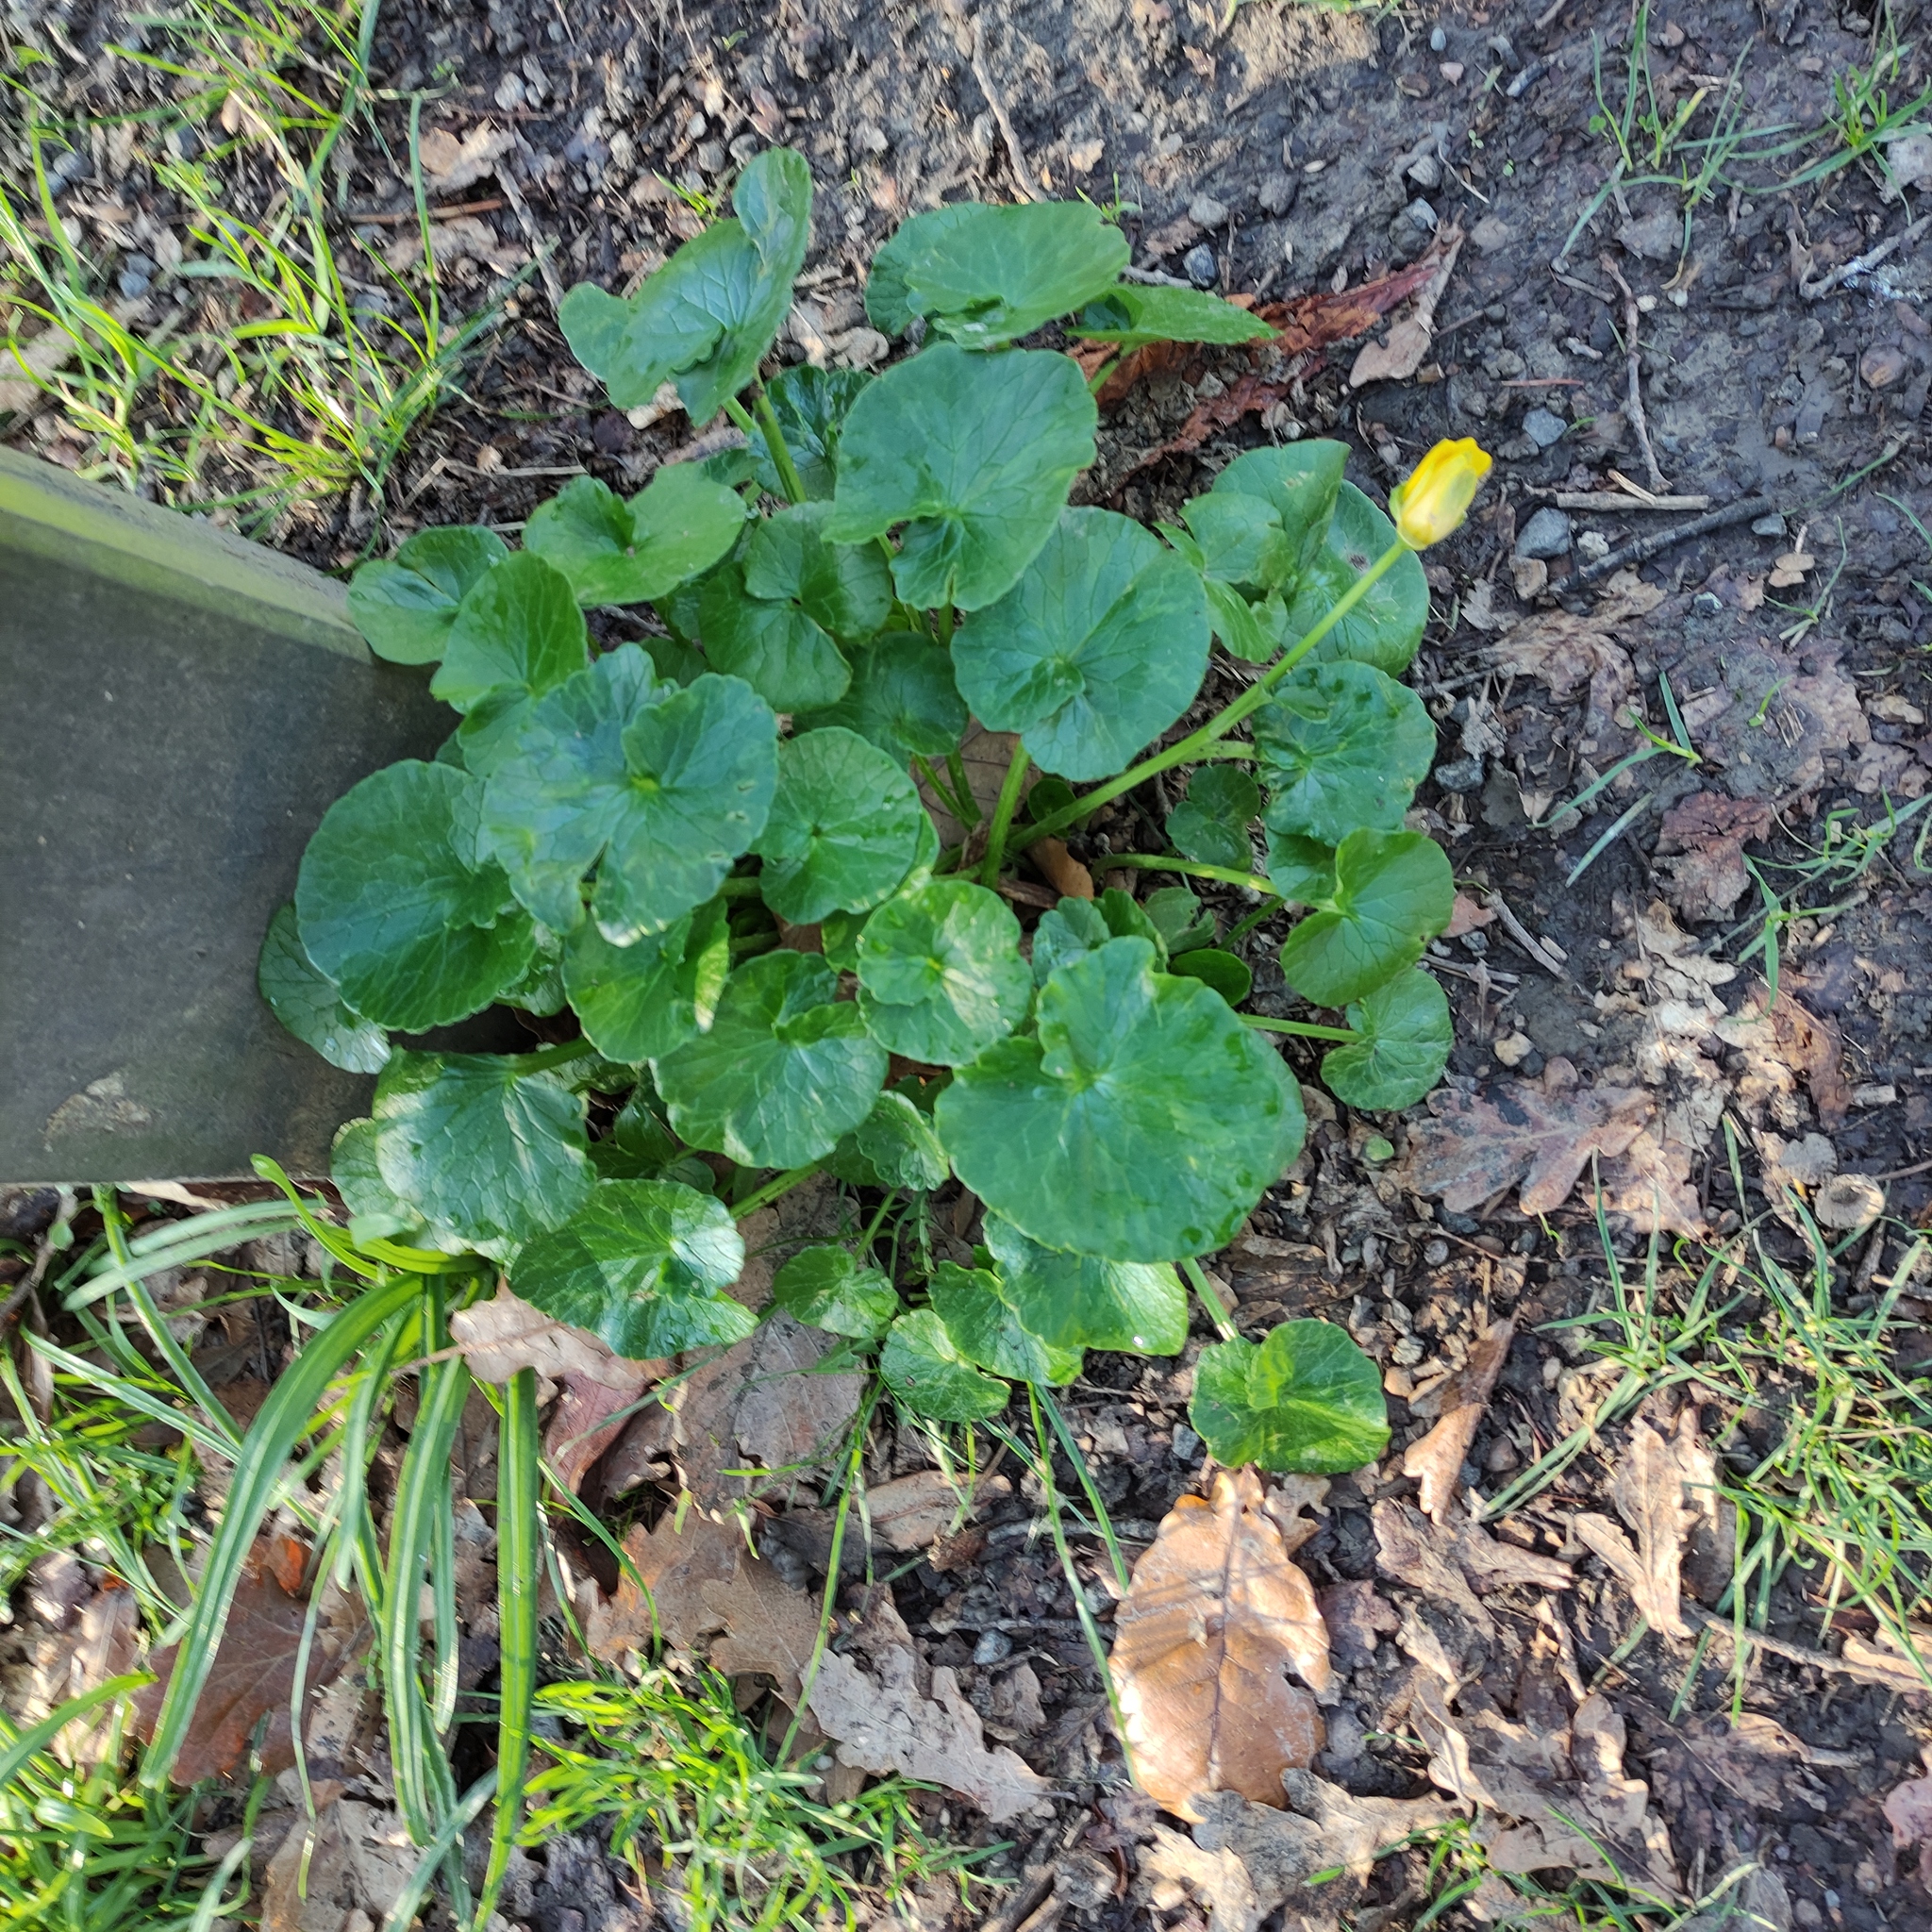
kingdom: Plantae
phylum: Tracheophyta
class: Magnoliopsida
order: Ranunculales
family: Ranunculaceae
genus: Ficaria
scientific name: Ficaria verna
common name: Lesser celandine
